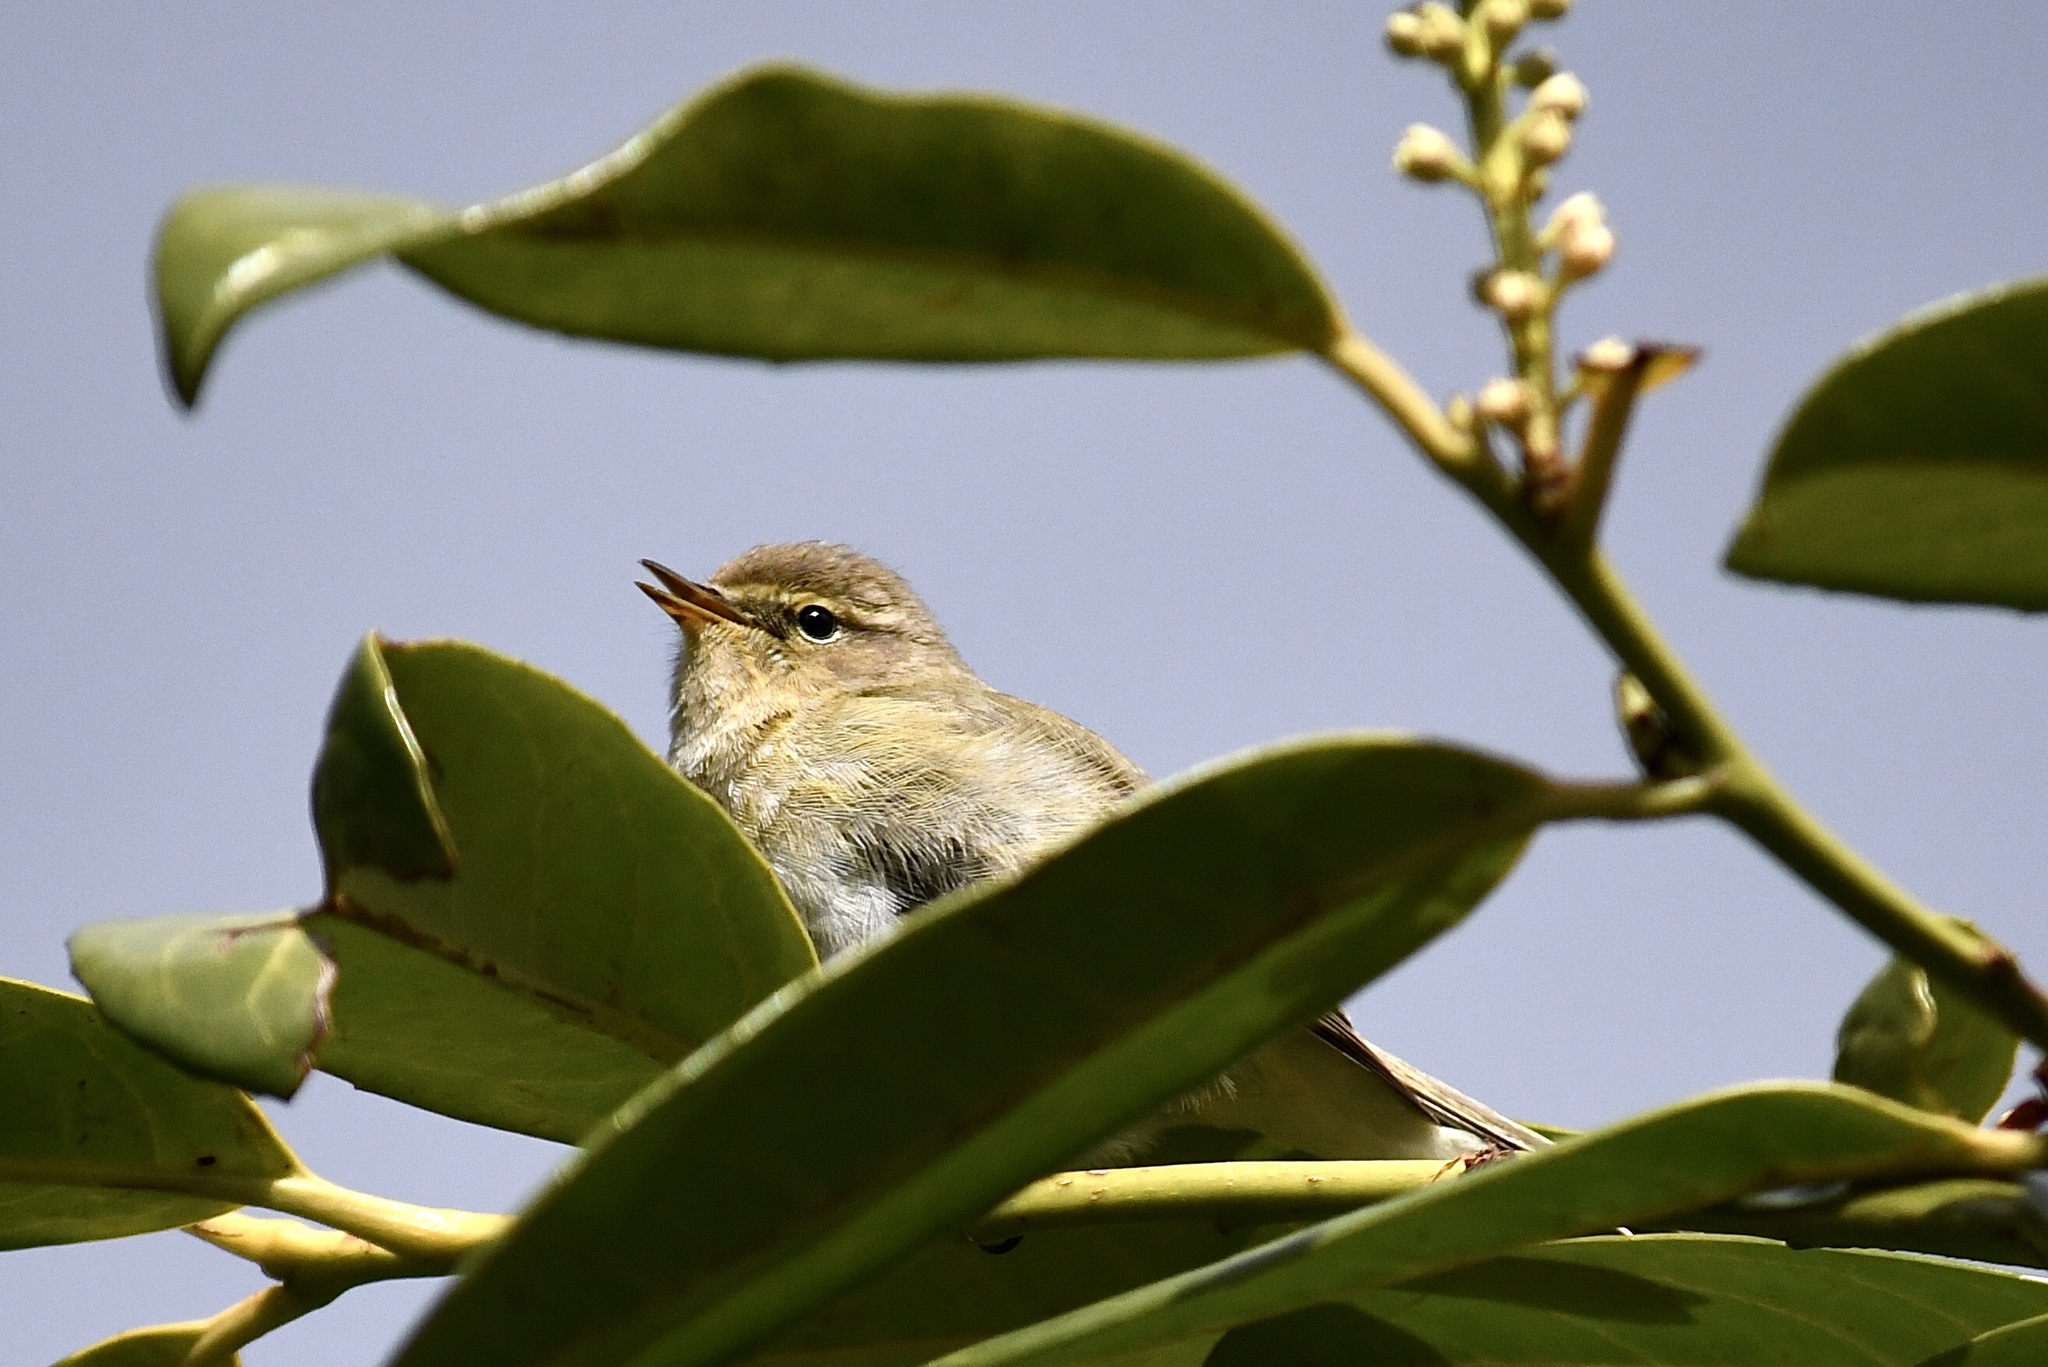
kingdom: Animalia
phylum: Chordata
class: Aves
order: Passeriformes
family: Phylloscopidae
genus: Phylloscopus
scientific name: Phylloscopus collybita
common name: Common chiffchaff
